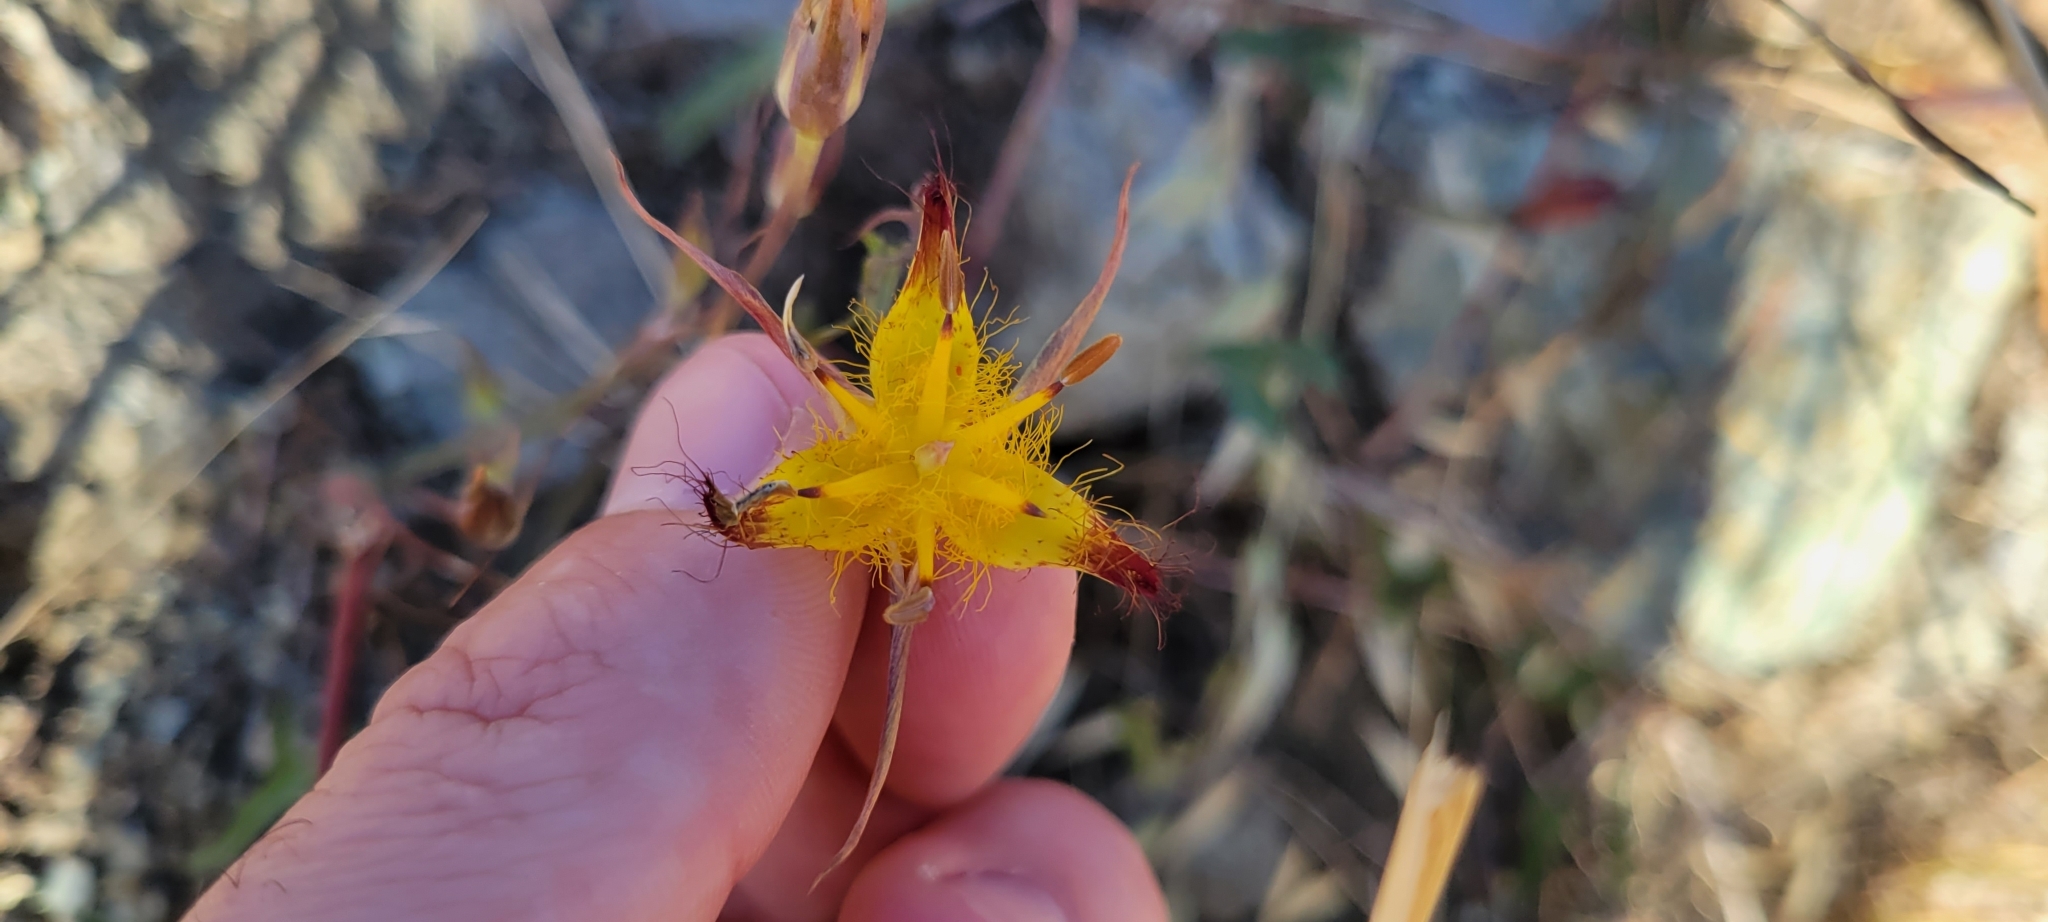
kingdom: Plantae
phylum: Tracheophyta
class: Liliopsida
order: Liliales
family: Liliaceae
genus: Calochortus
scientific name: Calochortus obispoensis
